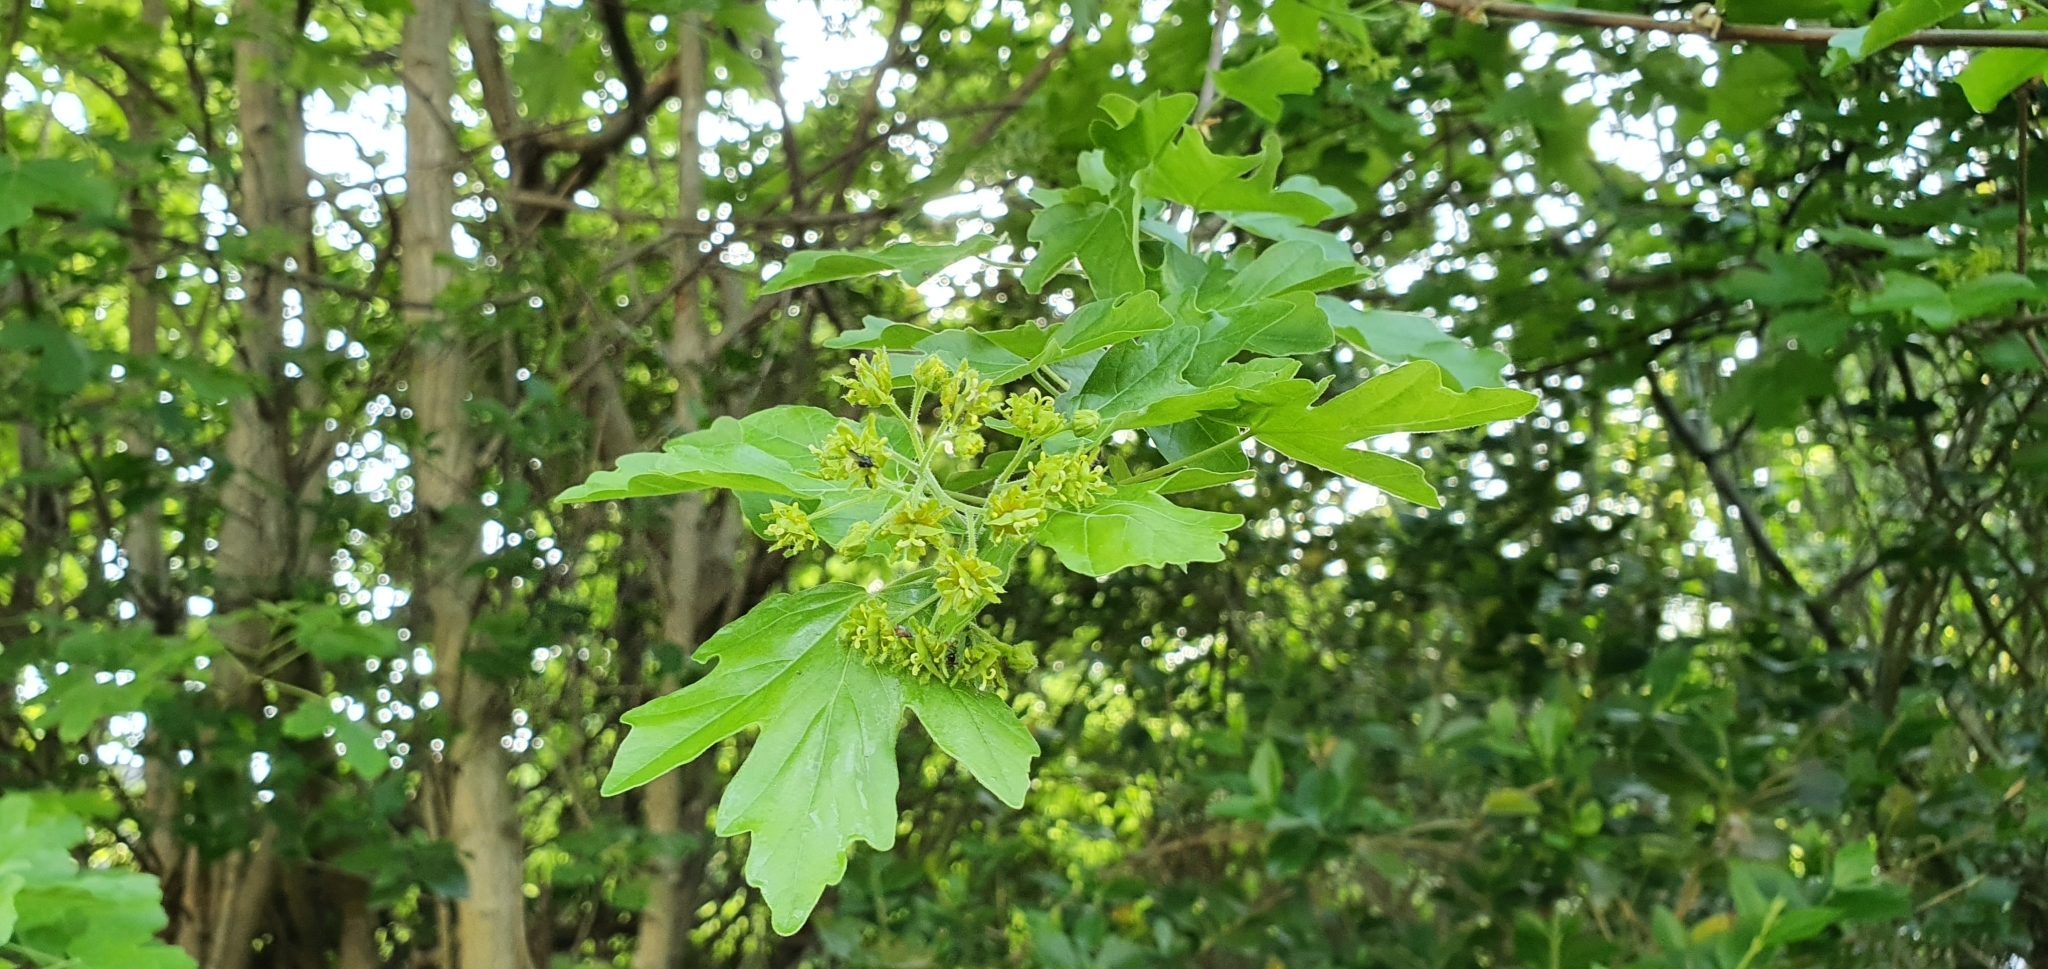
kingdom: Plantae
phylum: Tracheophyta
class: Magnoliopsida
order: Sapindales
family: Sapindaceae
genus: Acer
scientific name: Acer campestre
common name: Field maple
